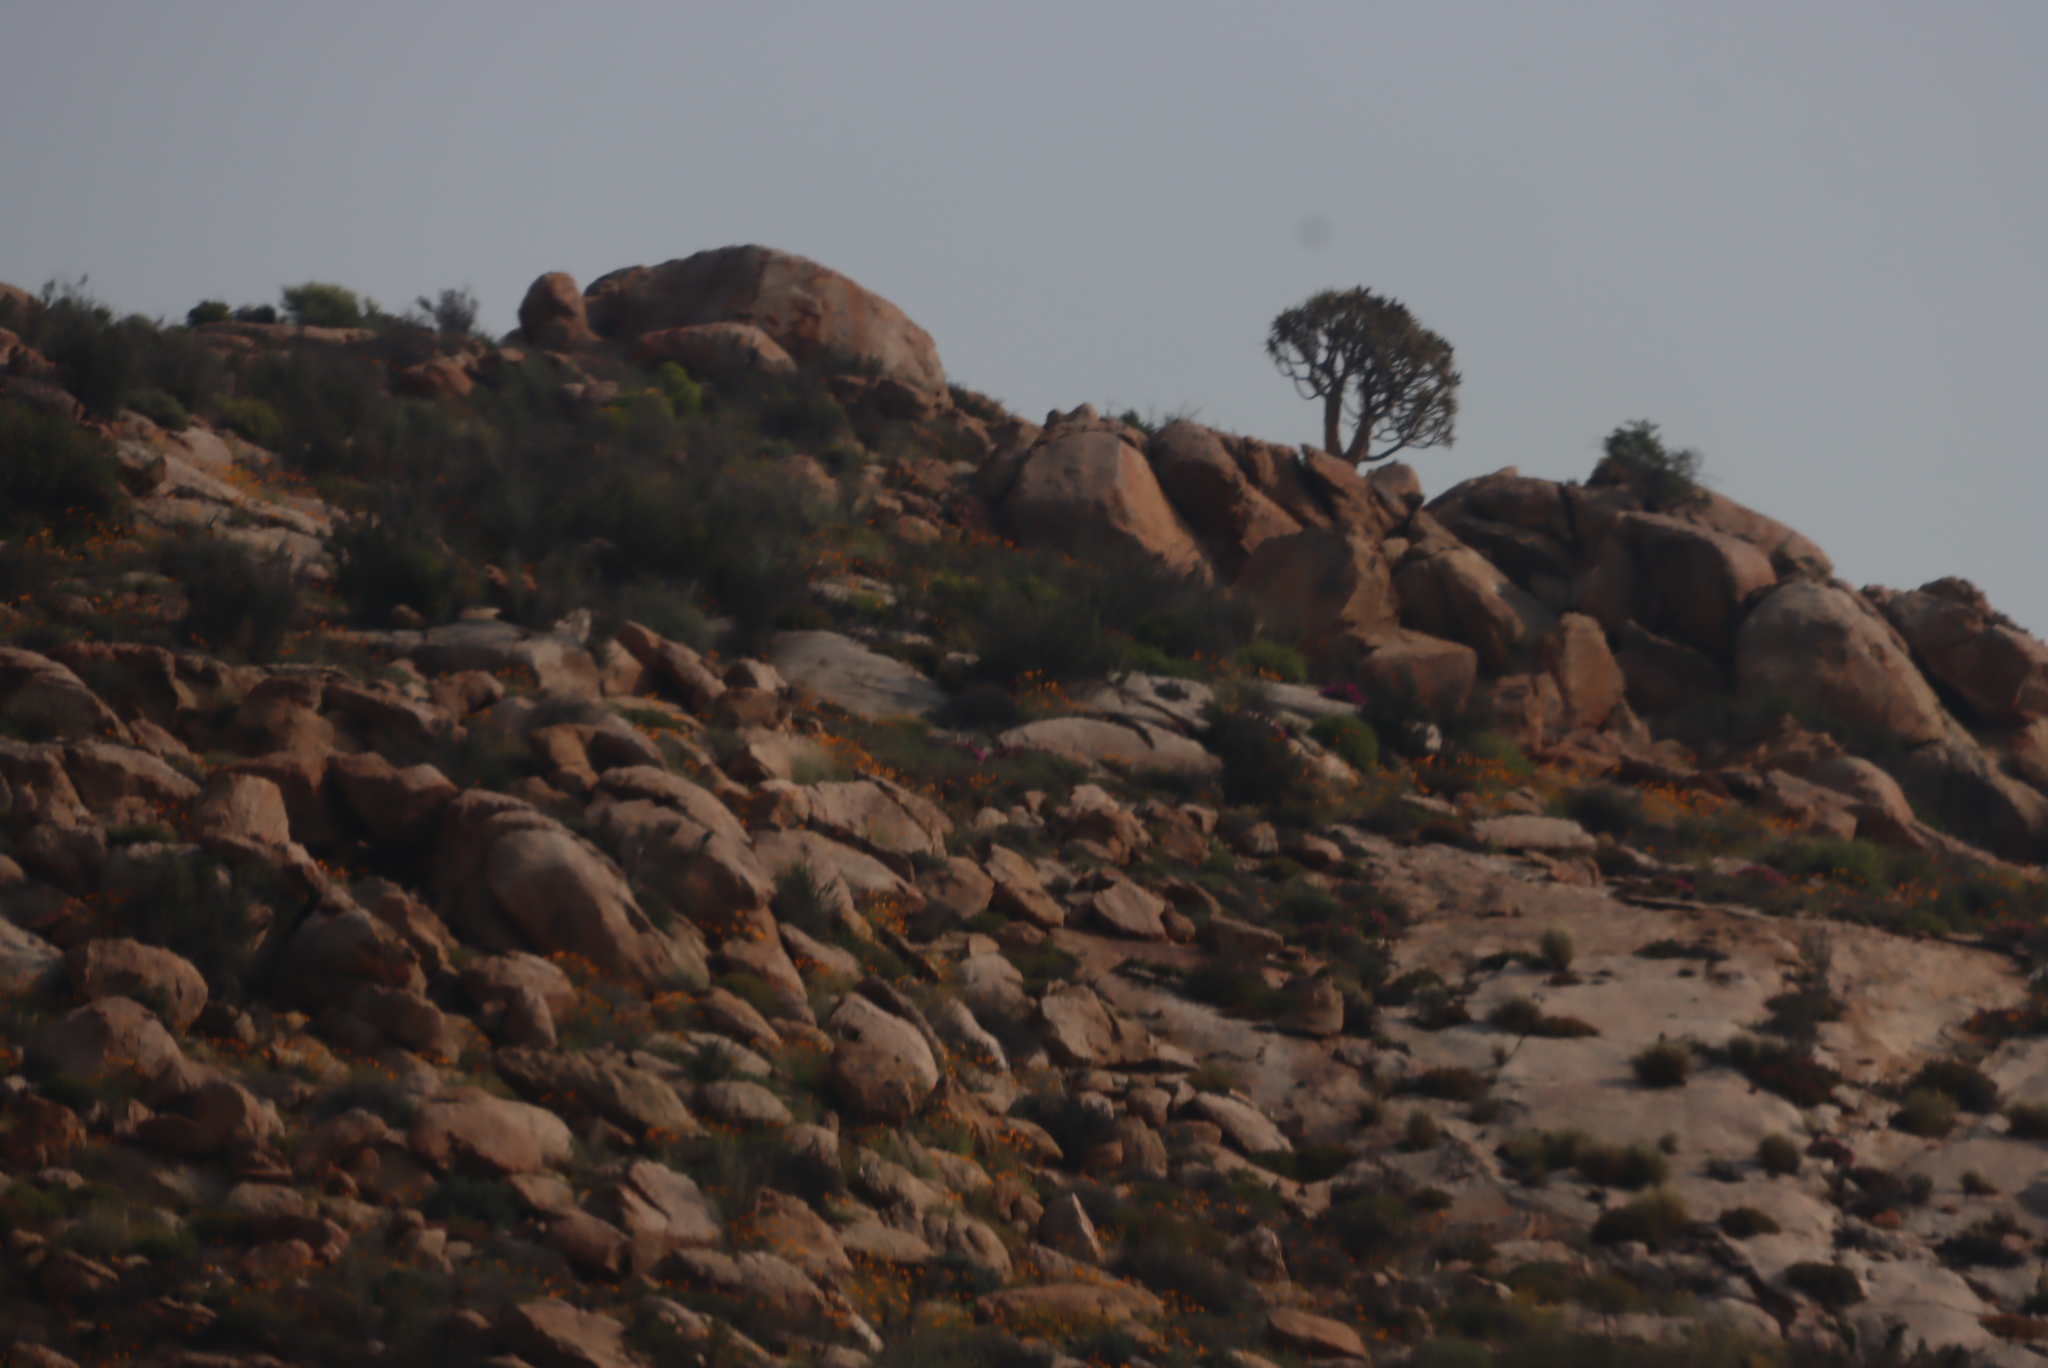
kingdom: Plantae
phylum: Tracheophyta
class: Liliopsida
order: Asparagales
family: Asphodelaceae
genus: Aloidendron
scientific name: Aloidendron dichotomum
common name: Quiver tree
